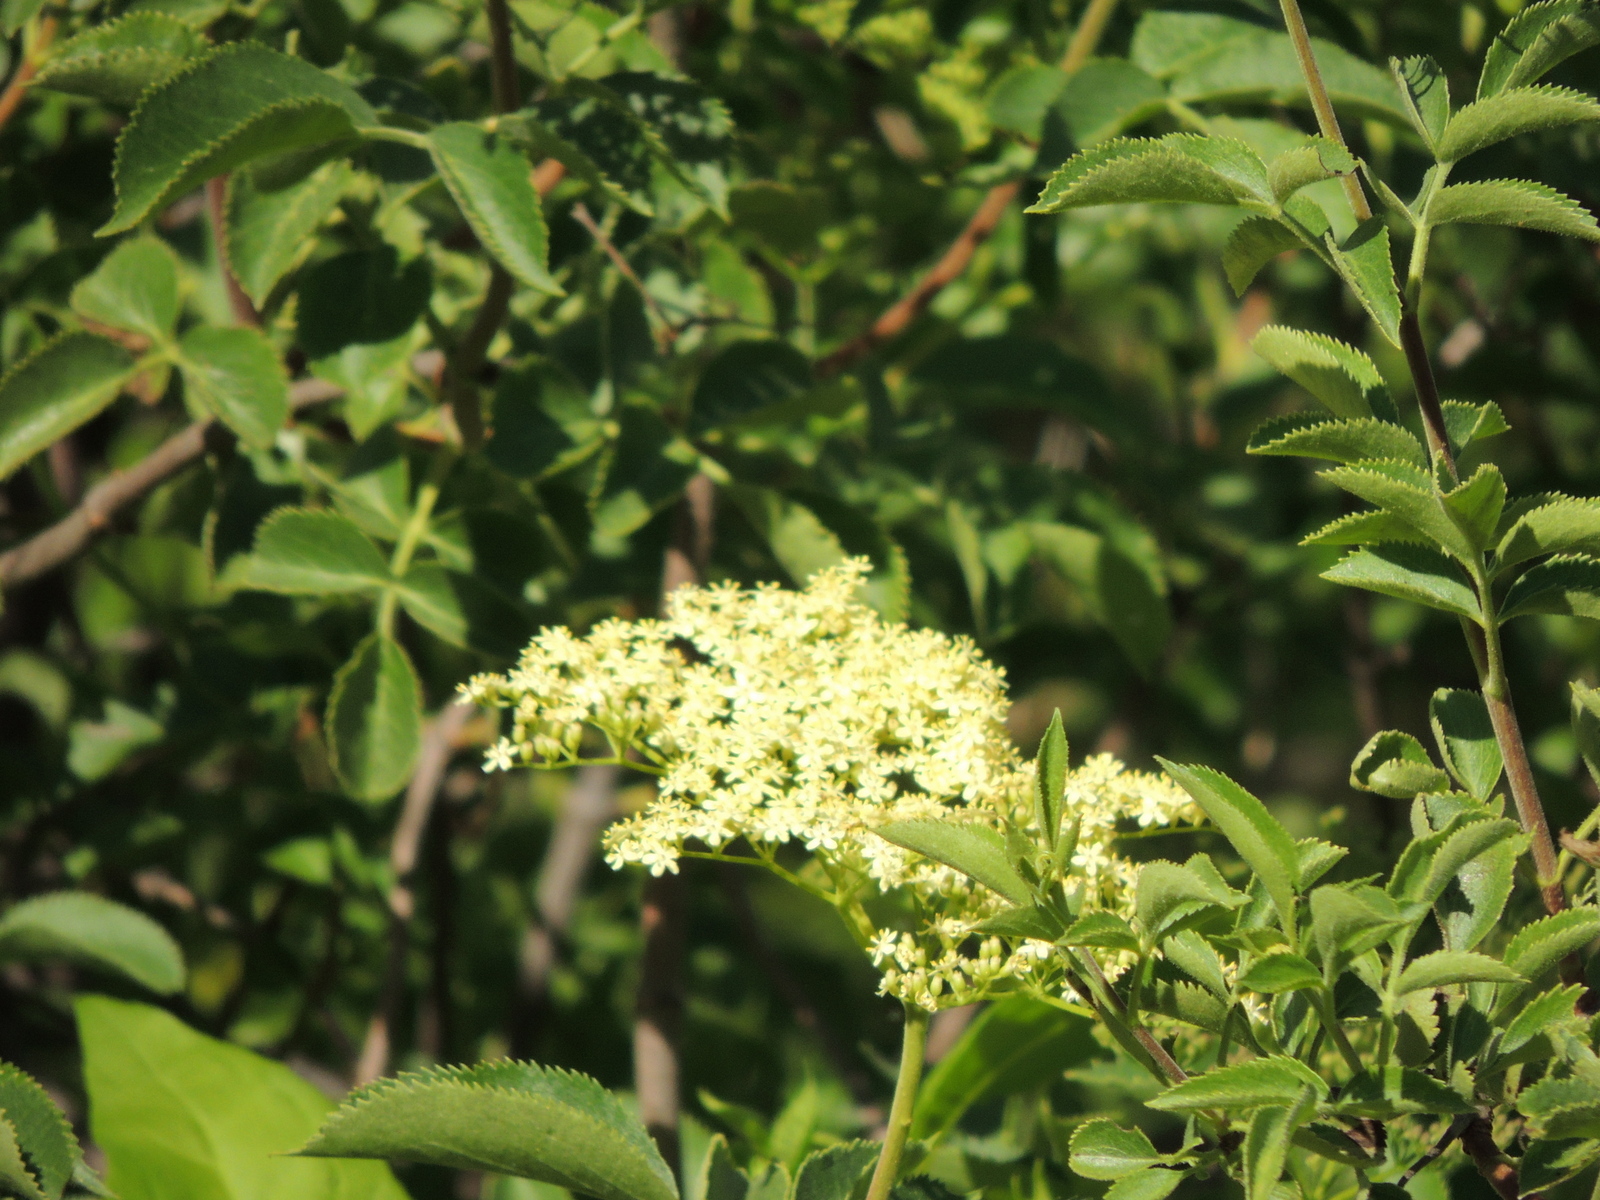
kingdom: Plantae
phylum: Tracheophyta
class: Magnoliopsida
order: Dipsacales
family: Viburnaceae
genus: Sambucus
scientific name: Sambucus cerulea
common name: Blue elder
